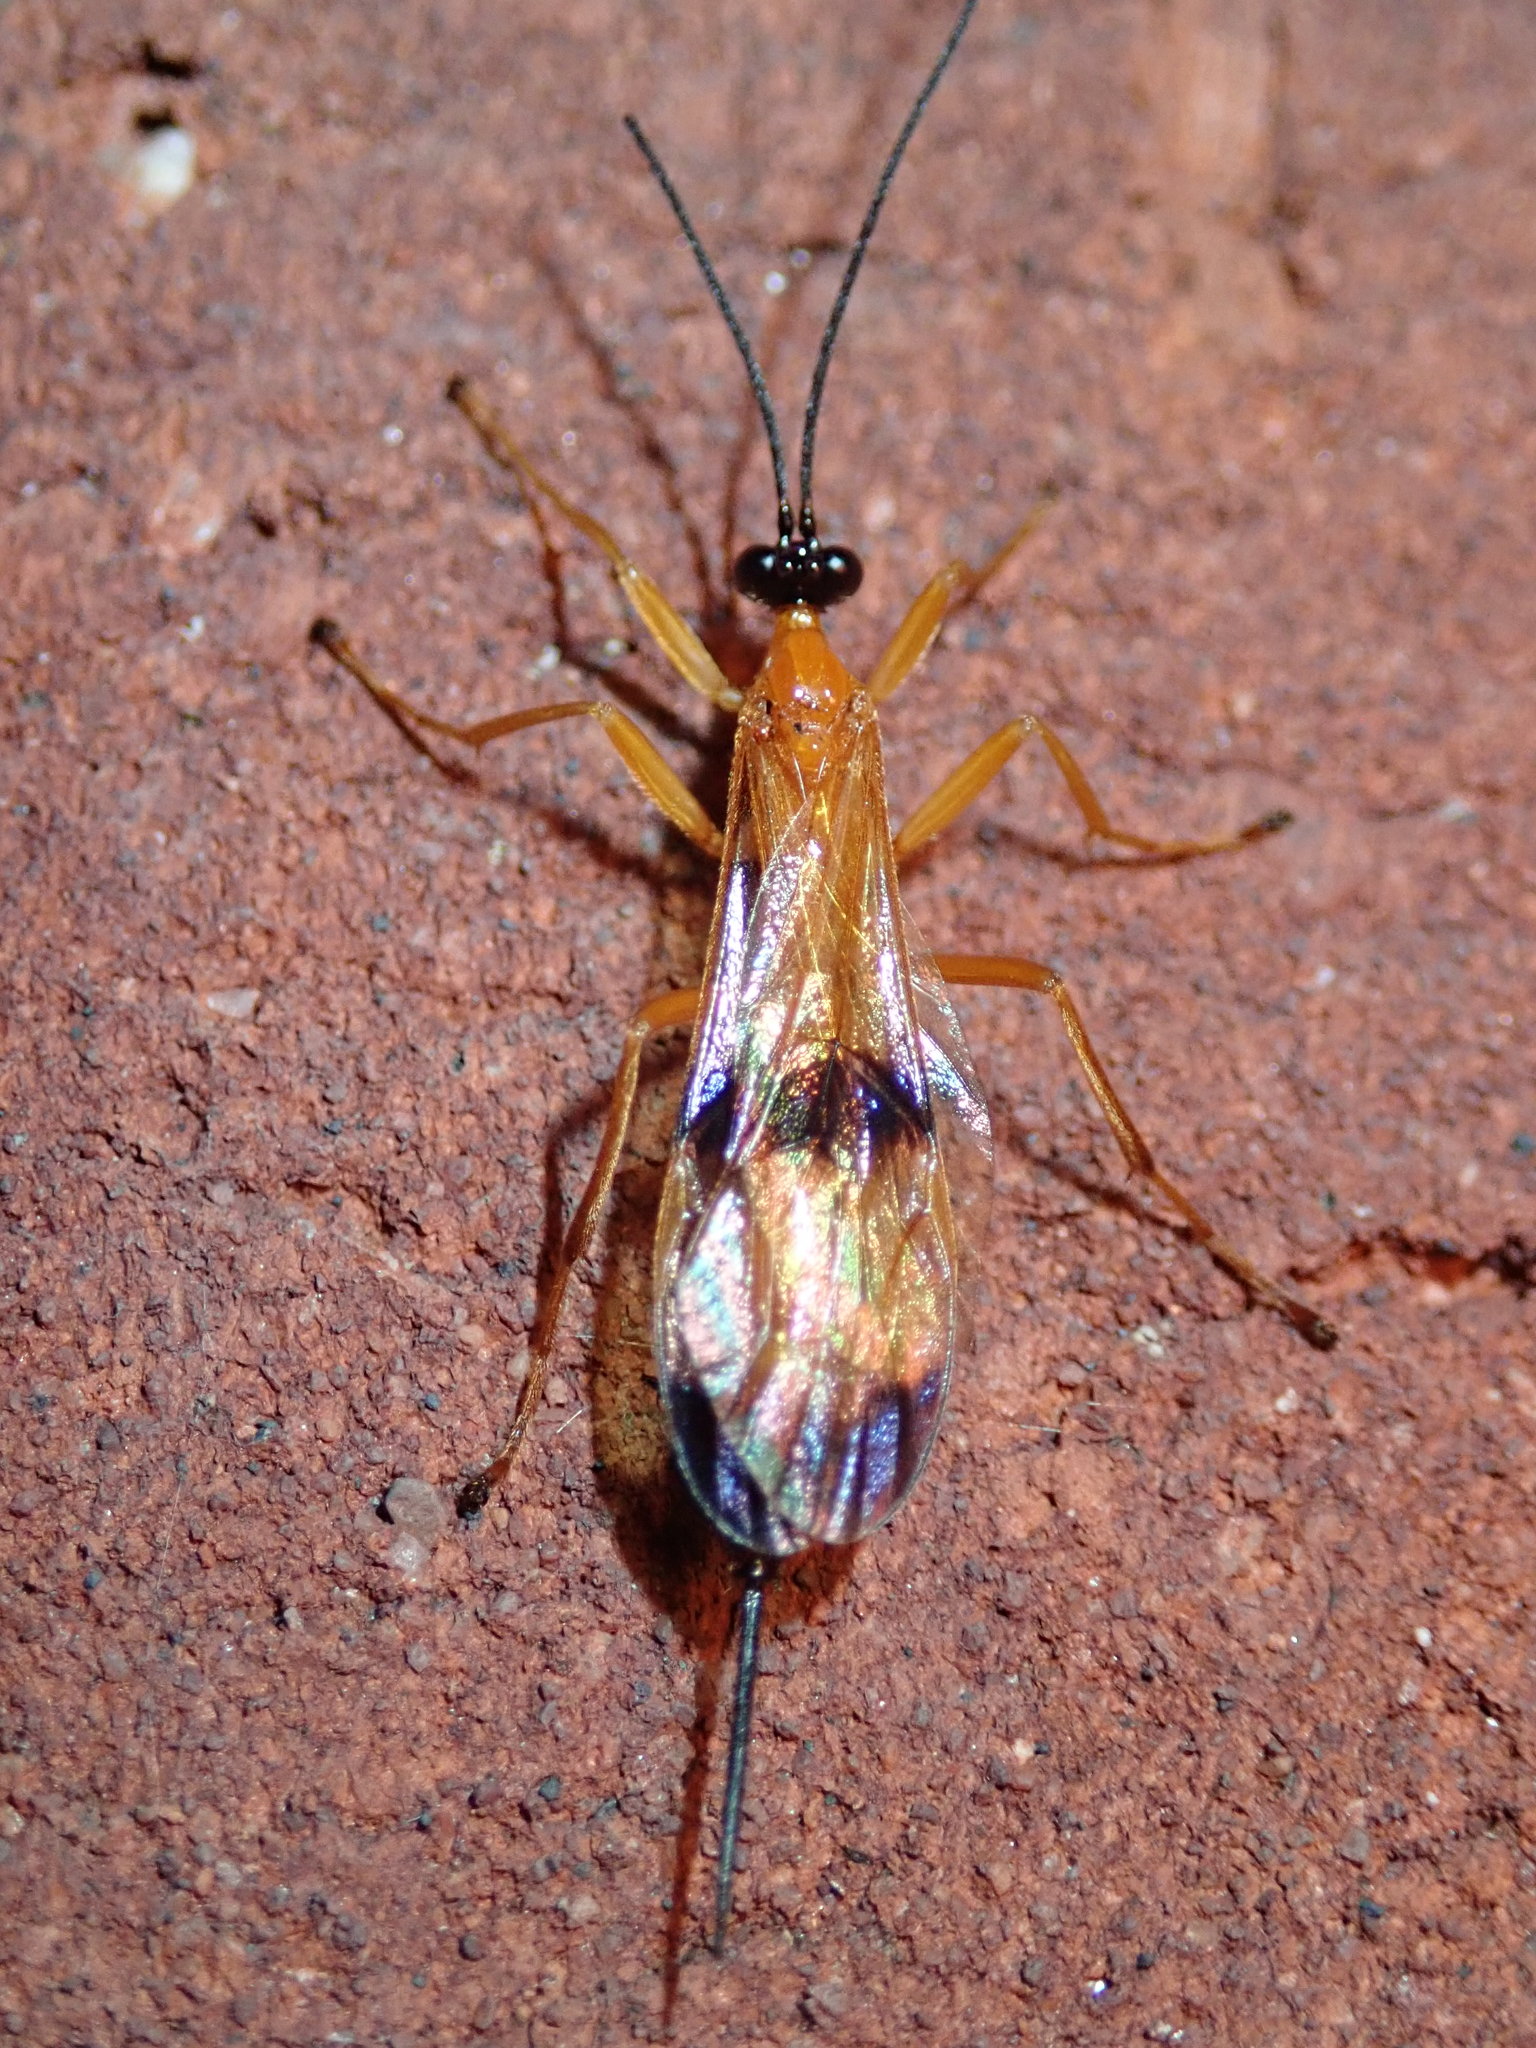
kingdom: Animalia
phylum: Arthropoda
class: Insecta
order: Hymenoptera
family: Ichneumonidae
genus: Acrotaphus
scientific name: Acrotaphus wiltii
